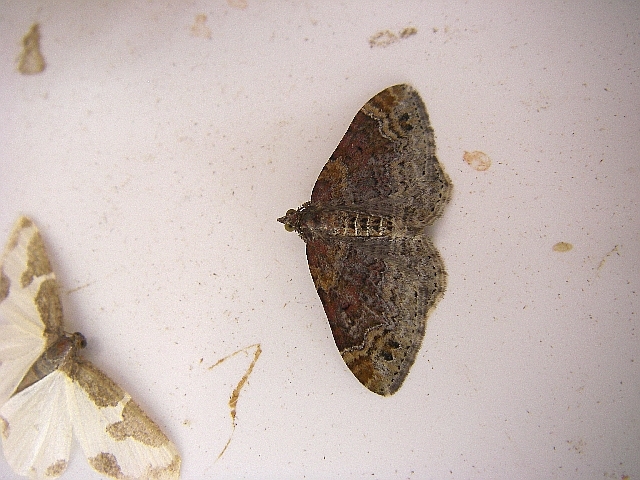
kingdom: Animalia
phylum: Arthropoda
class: Insecta
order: Lepidoptera
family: Geometridae
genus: Xanthorhoe
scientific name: Xanthorhoe ferrugata
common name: Dark-barred twin-spot carpet
